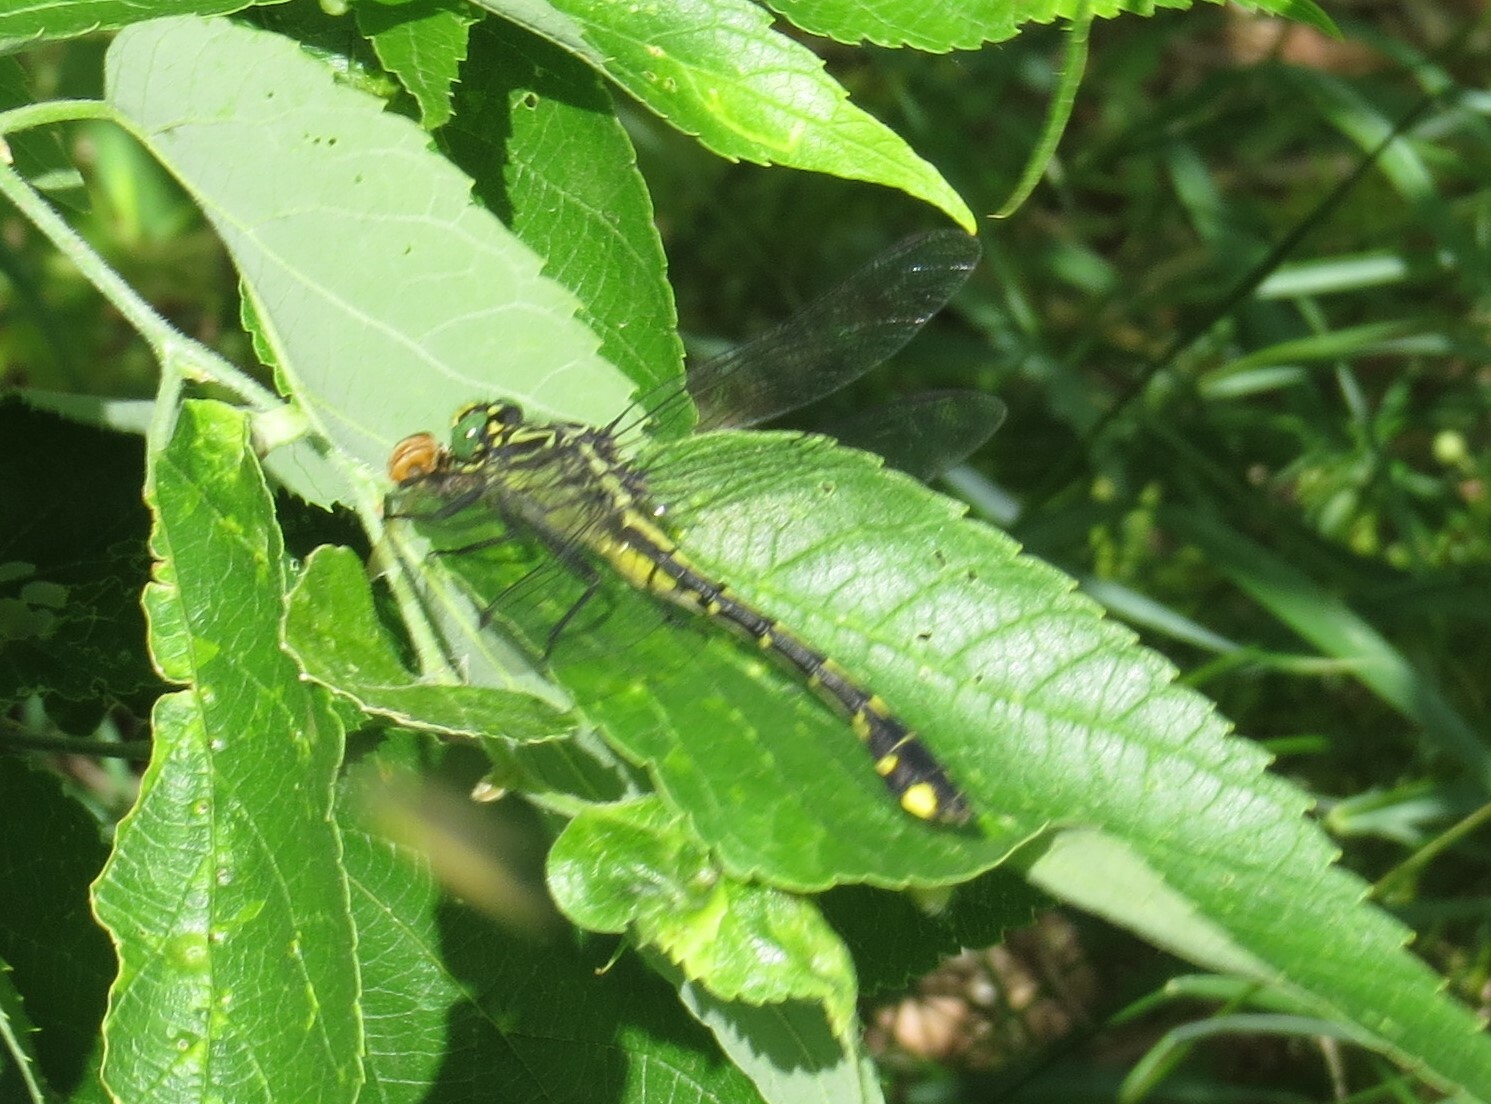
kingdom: Animalia
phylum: Arthropoda
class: Insecta
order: Odonata
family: Gomphidae
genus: Gomphurus
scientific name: Gomphurus vastus
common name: Cobra clubtail
